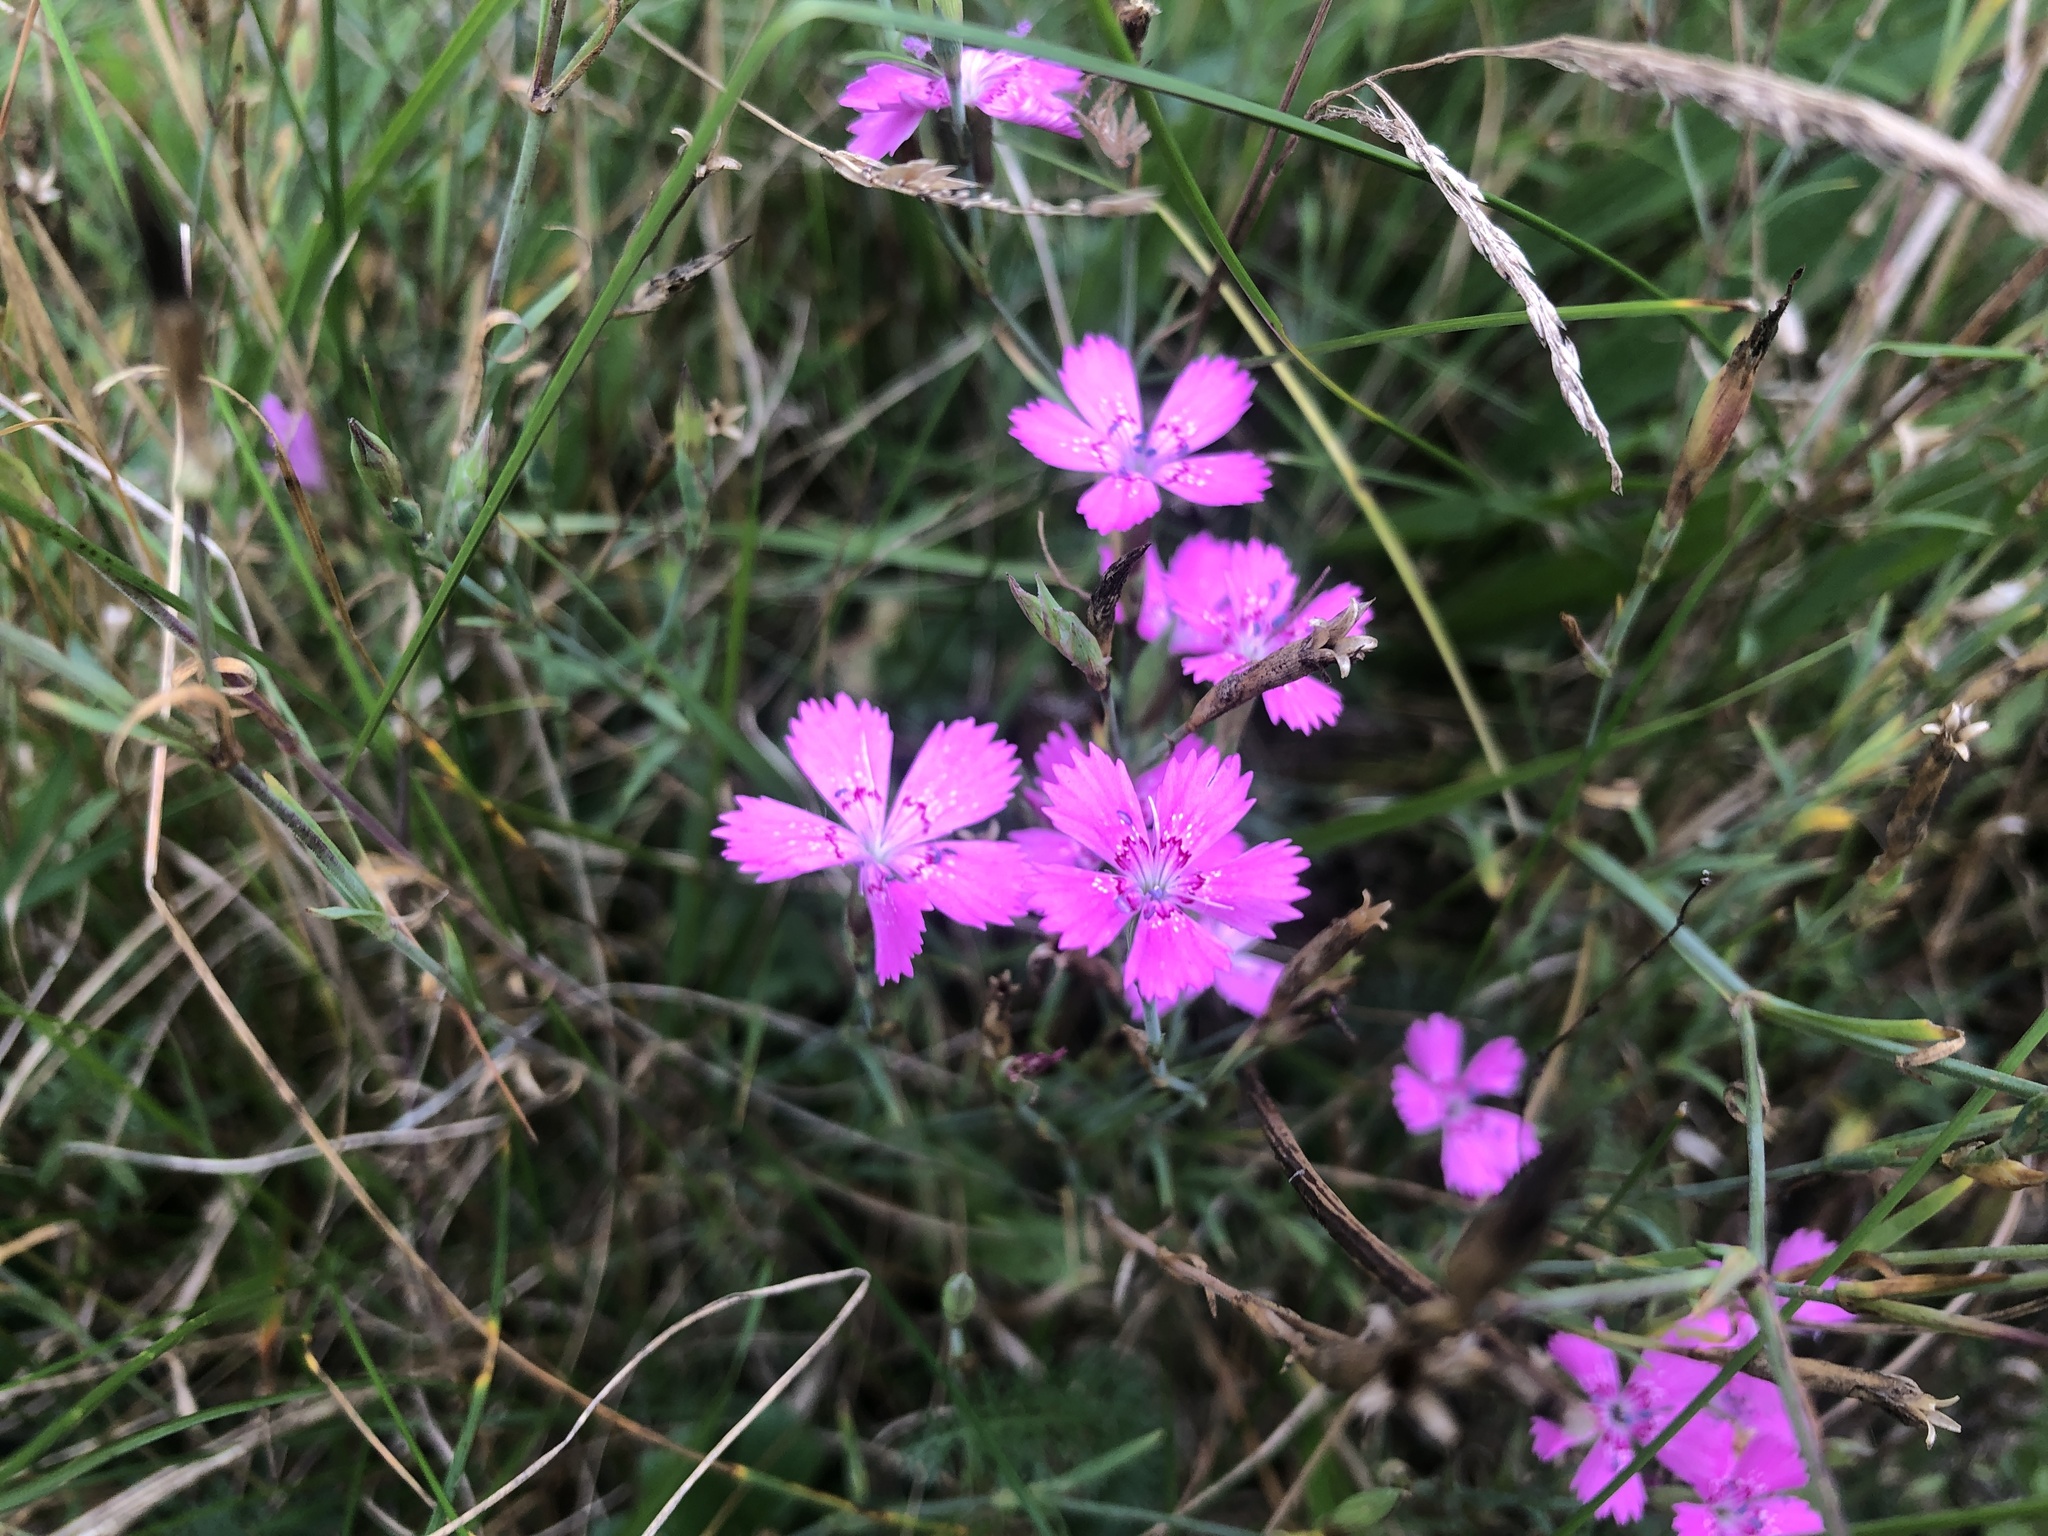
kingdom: Plantae
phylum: Tracheophyta
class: Magnoliopsida
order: Caryophyllales
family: Caryophyllaceae
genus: Dianthus
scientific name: Dianthus deltoides
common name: Maiden pink
